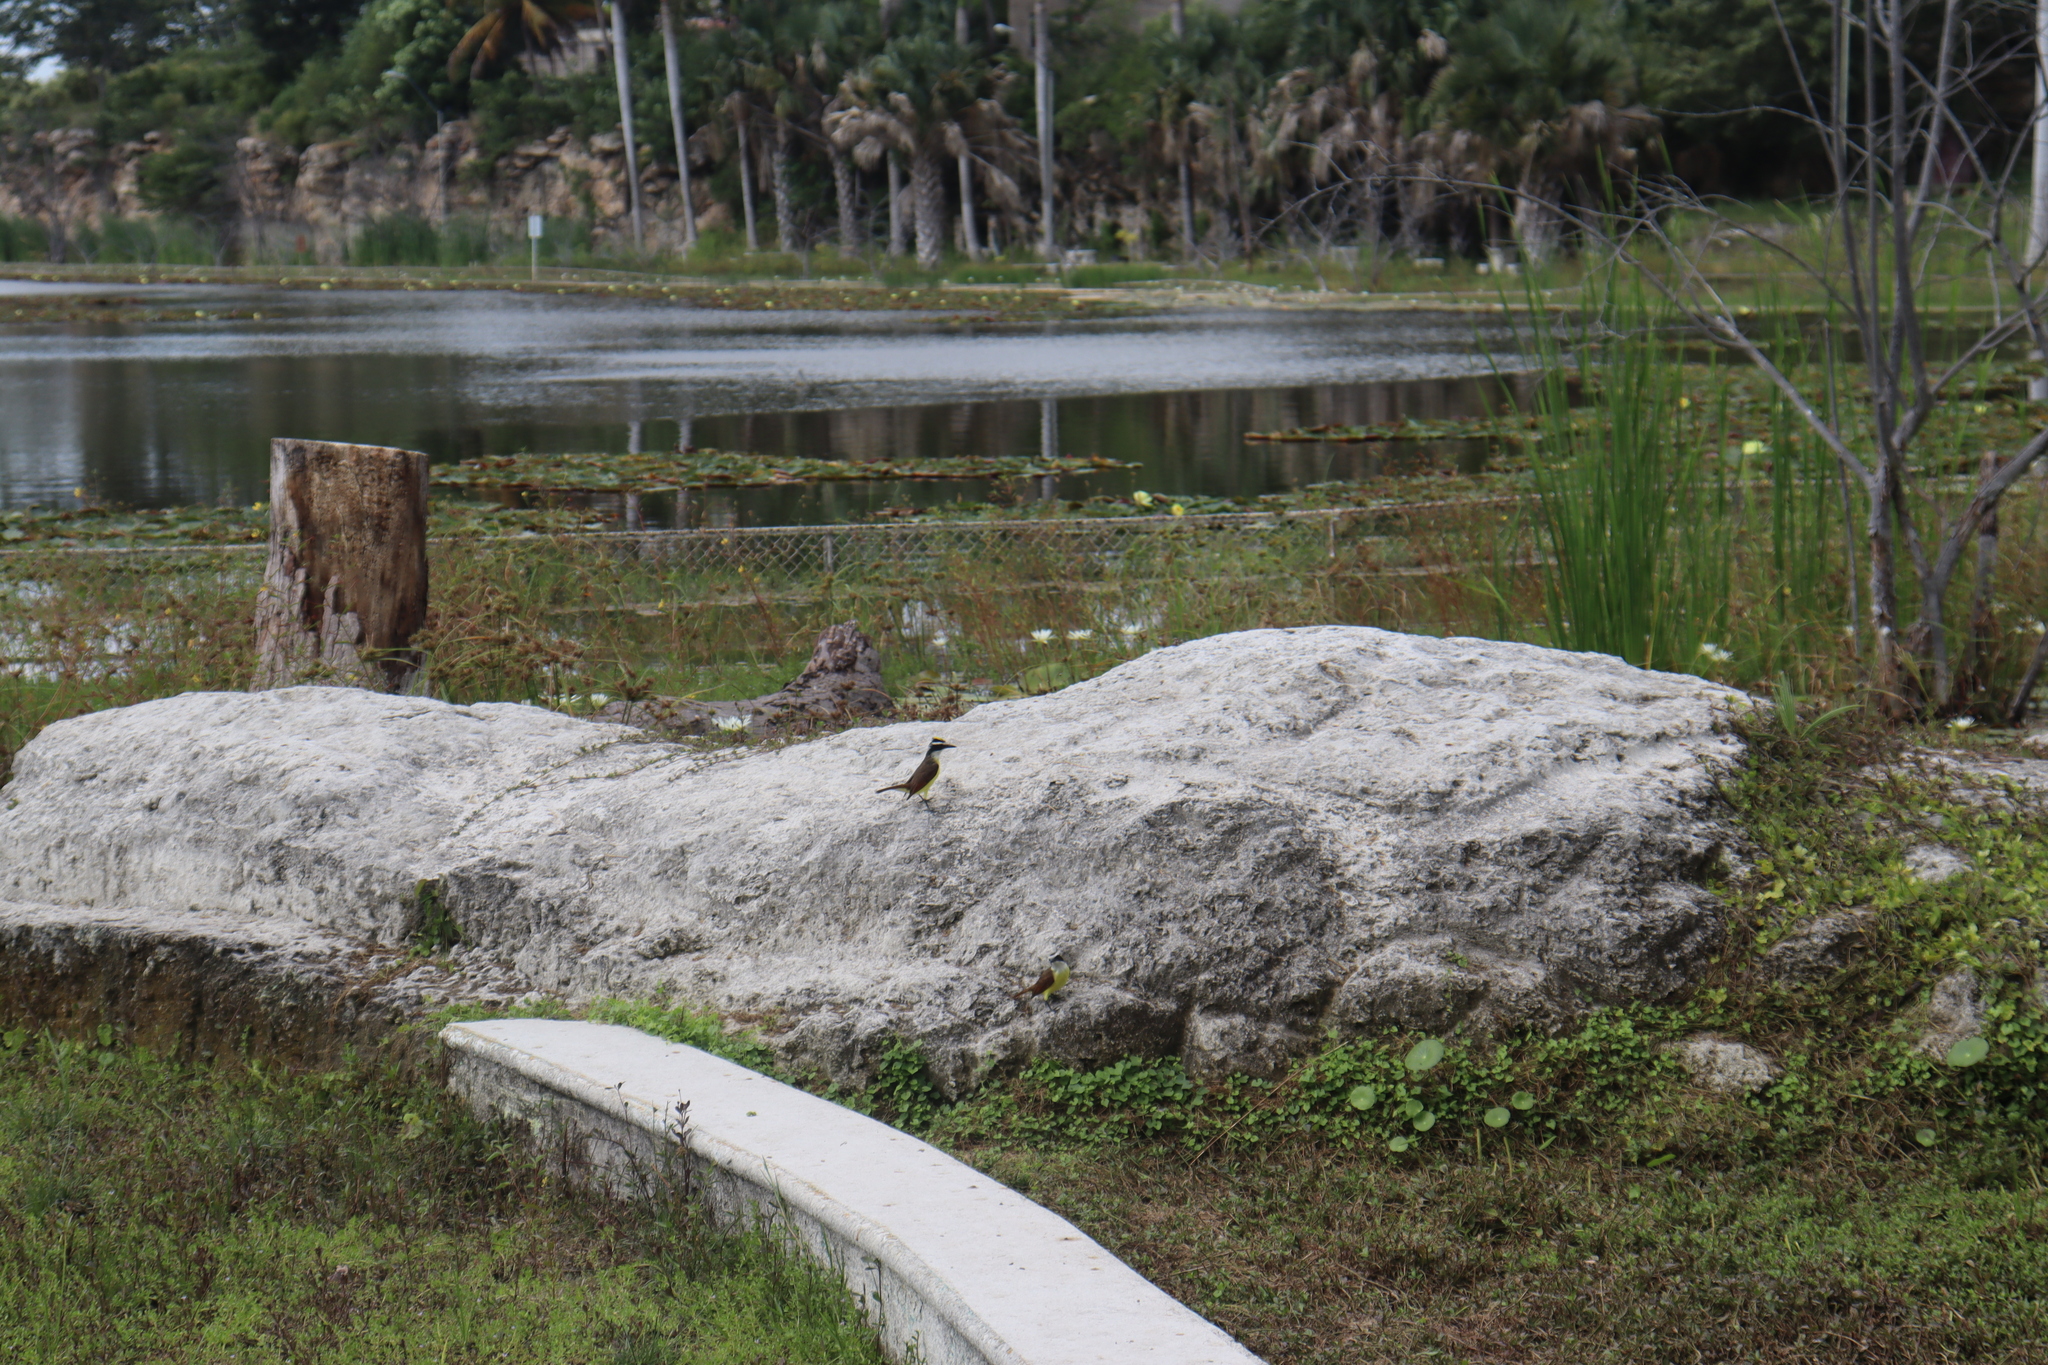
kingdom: Animalia
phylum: Chordata
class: Aves
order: Passeriformes
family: Tyrannidae
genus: Pitangus
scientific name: Pitangus sulphuratus
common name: Great kiskadee
